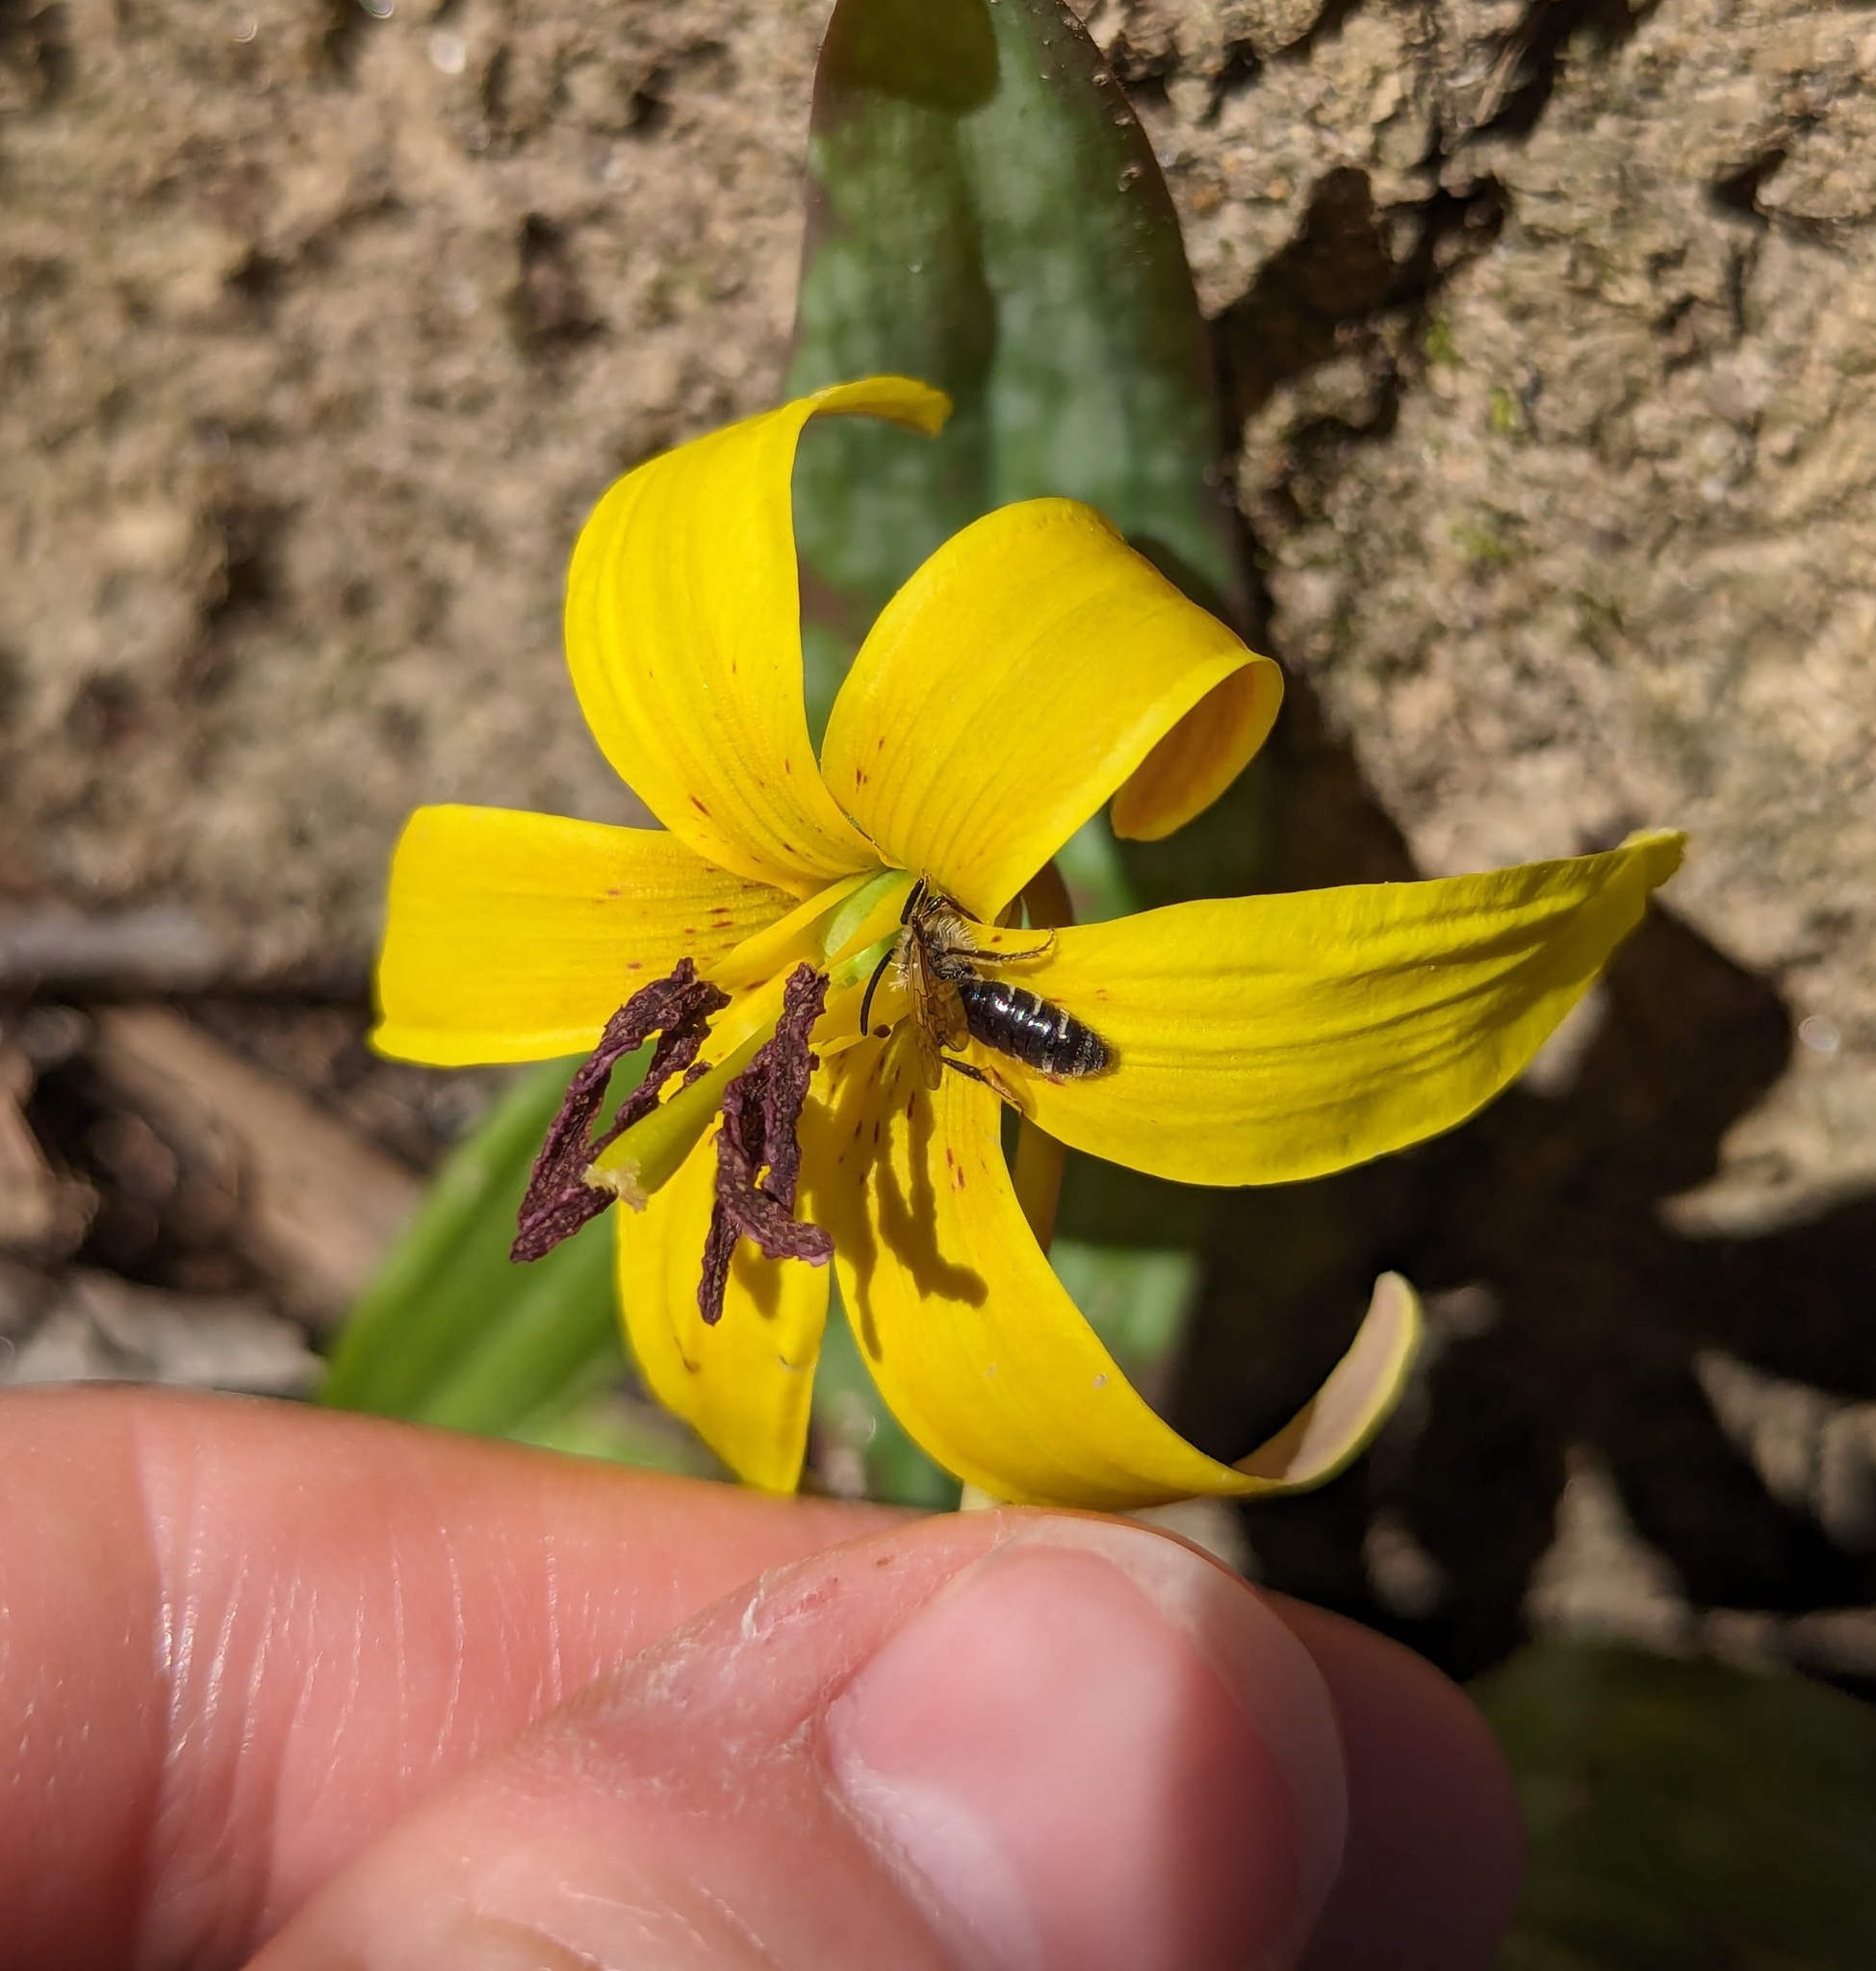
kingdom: Plantae
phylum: Tracheophyta
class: Liliopsida
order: Liliales
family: Liliaceae
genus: Erythronium
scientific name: Erythronium americanum
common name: Yellow adder's-tongue
